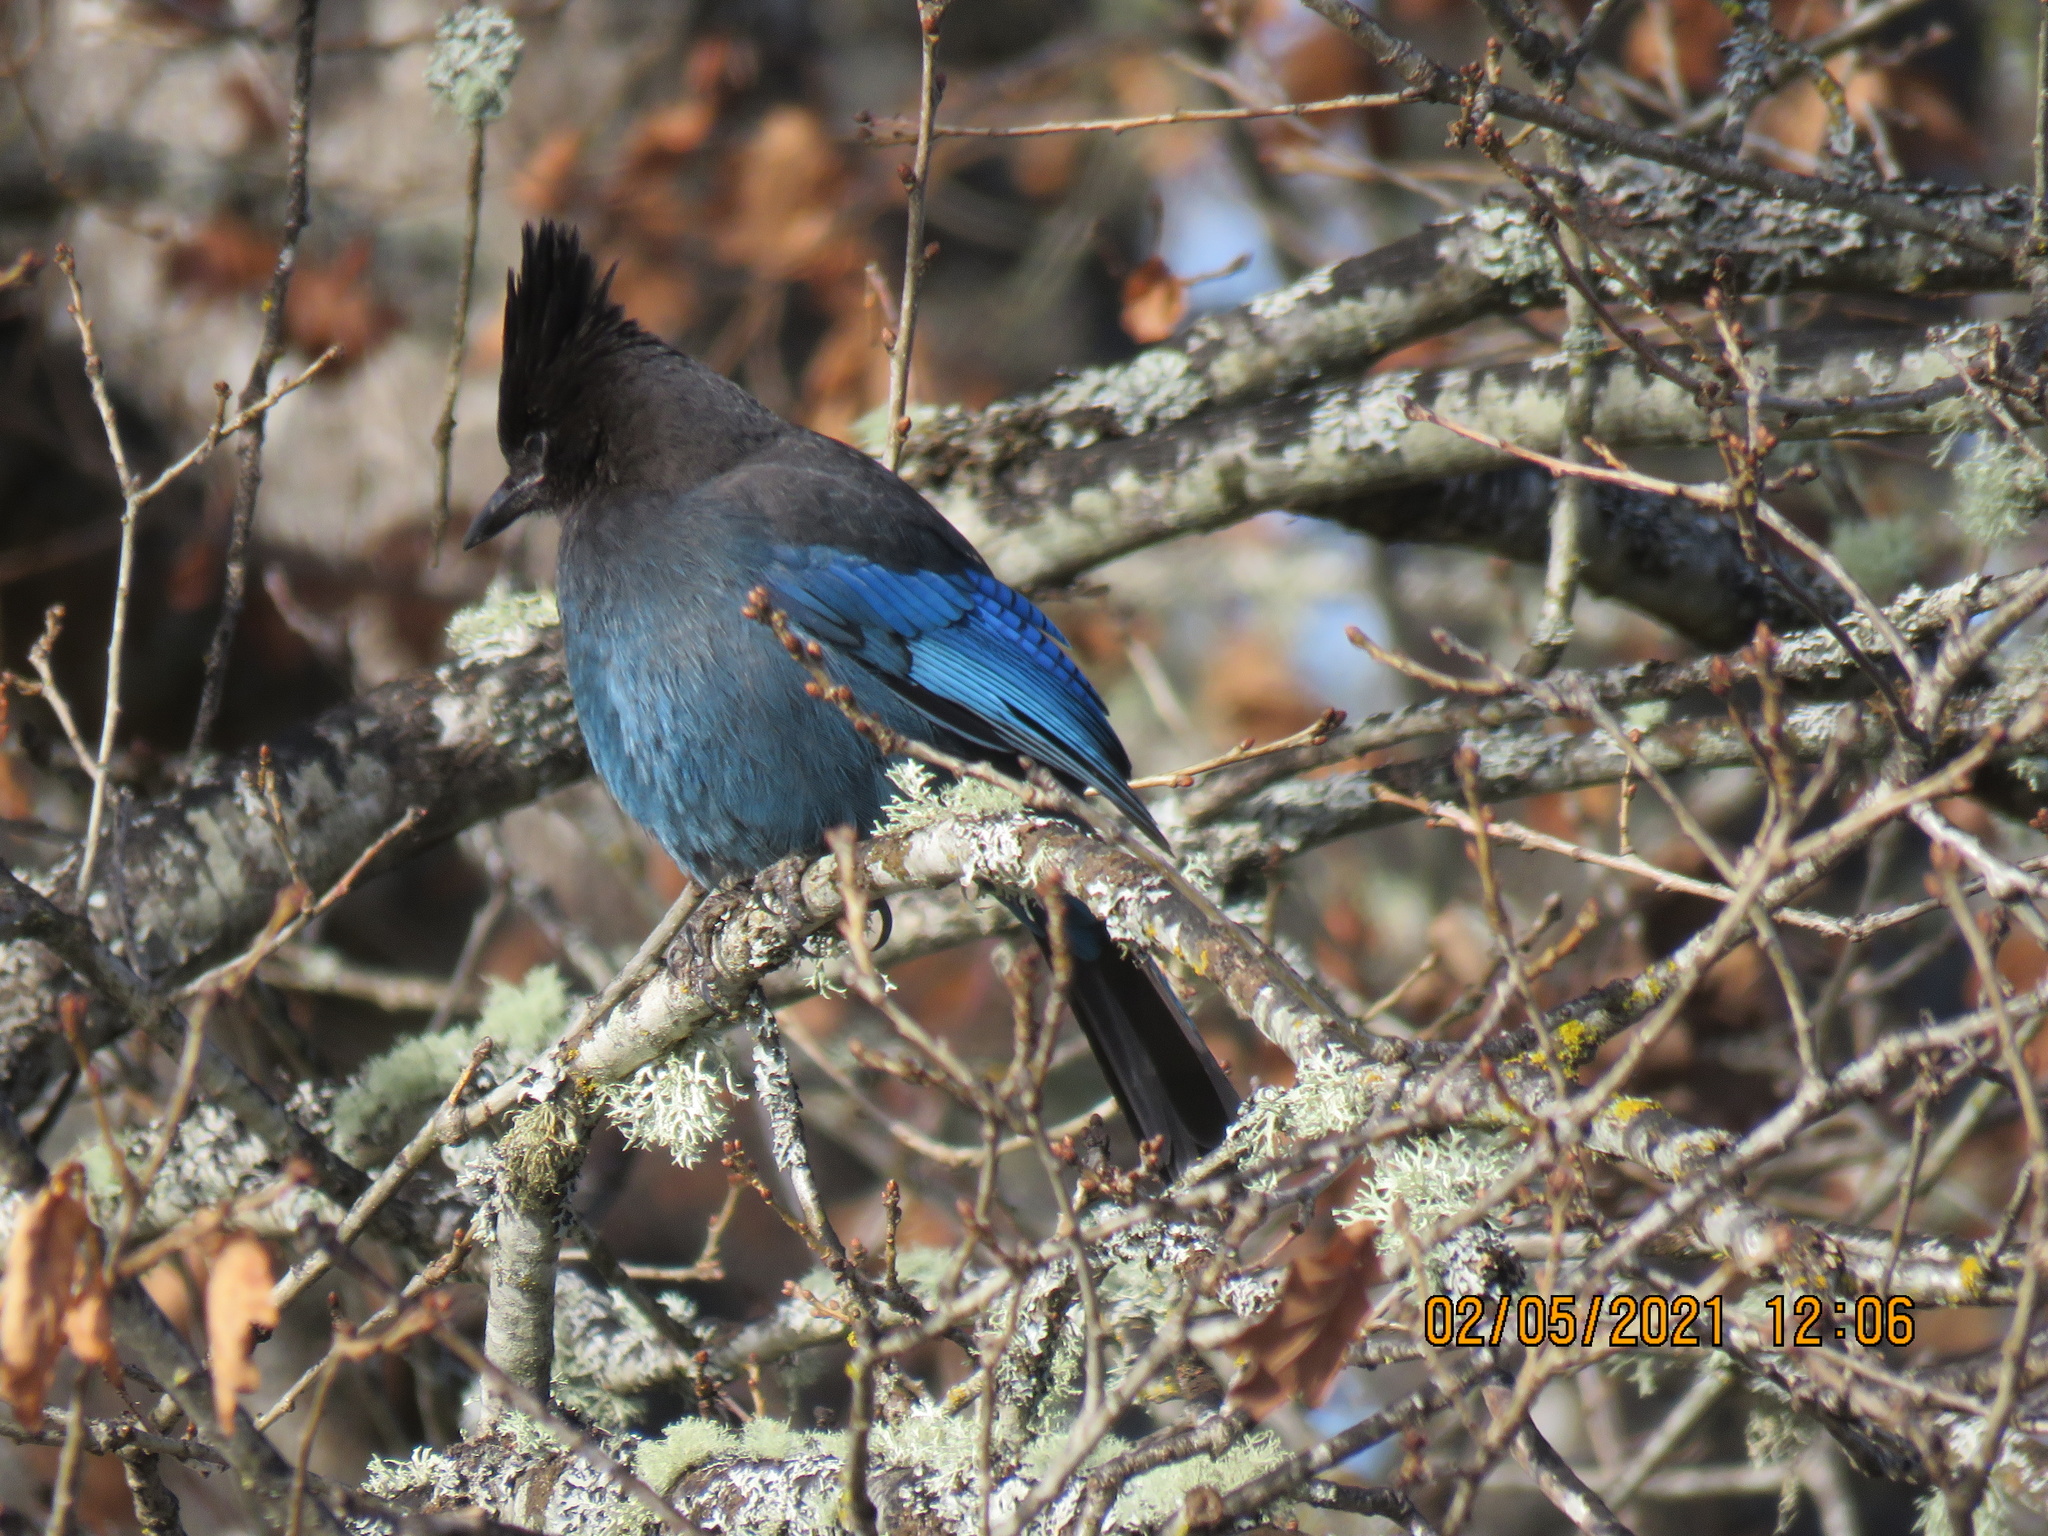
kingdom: Animalia
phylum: Chordata
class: Aves
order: Passeriformes
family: Corvidae
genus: Cyanocitta
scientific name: Cyanocitta stelleri
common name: Steller's jay
